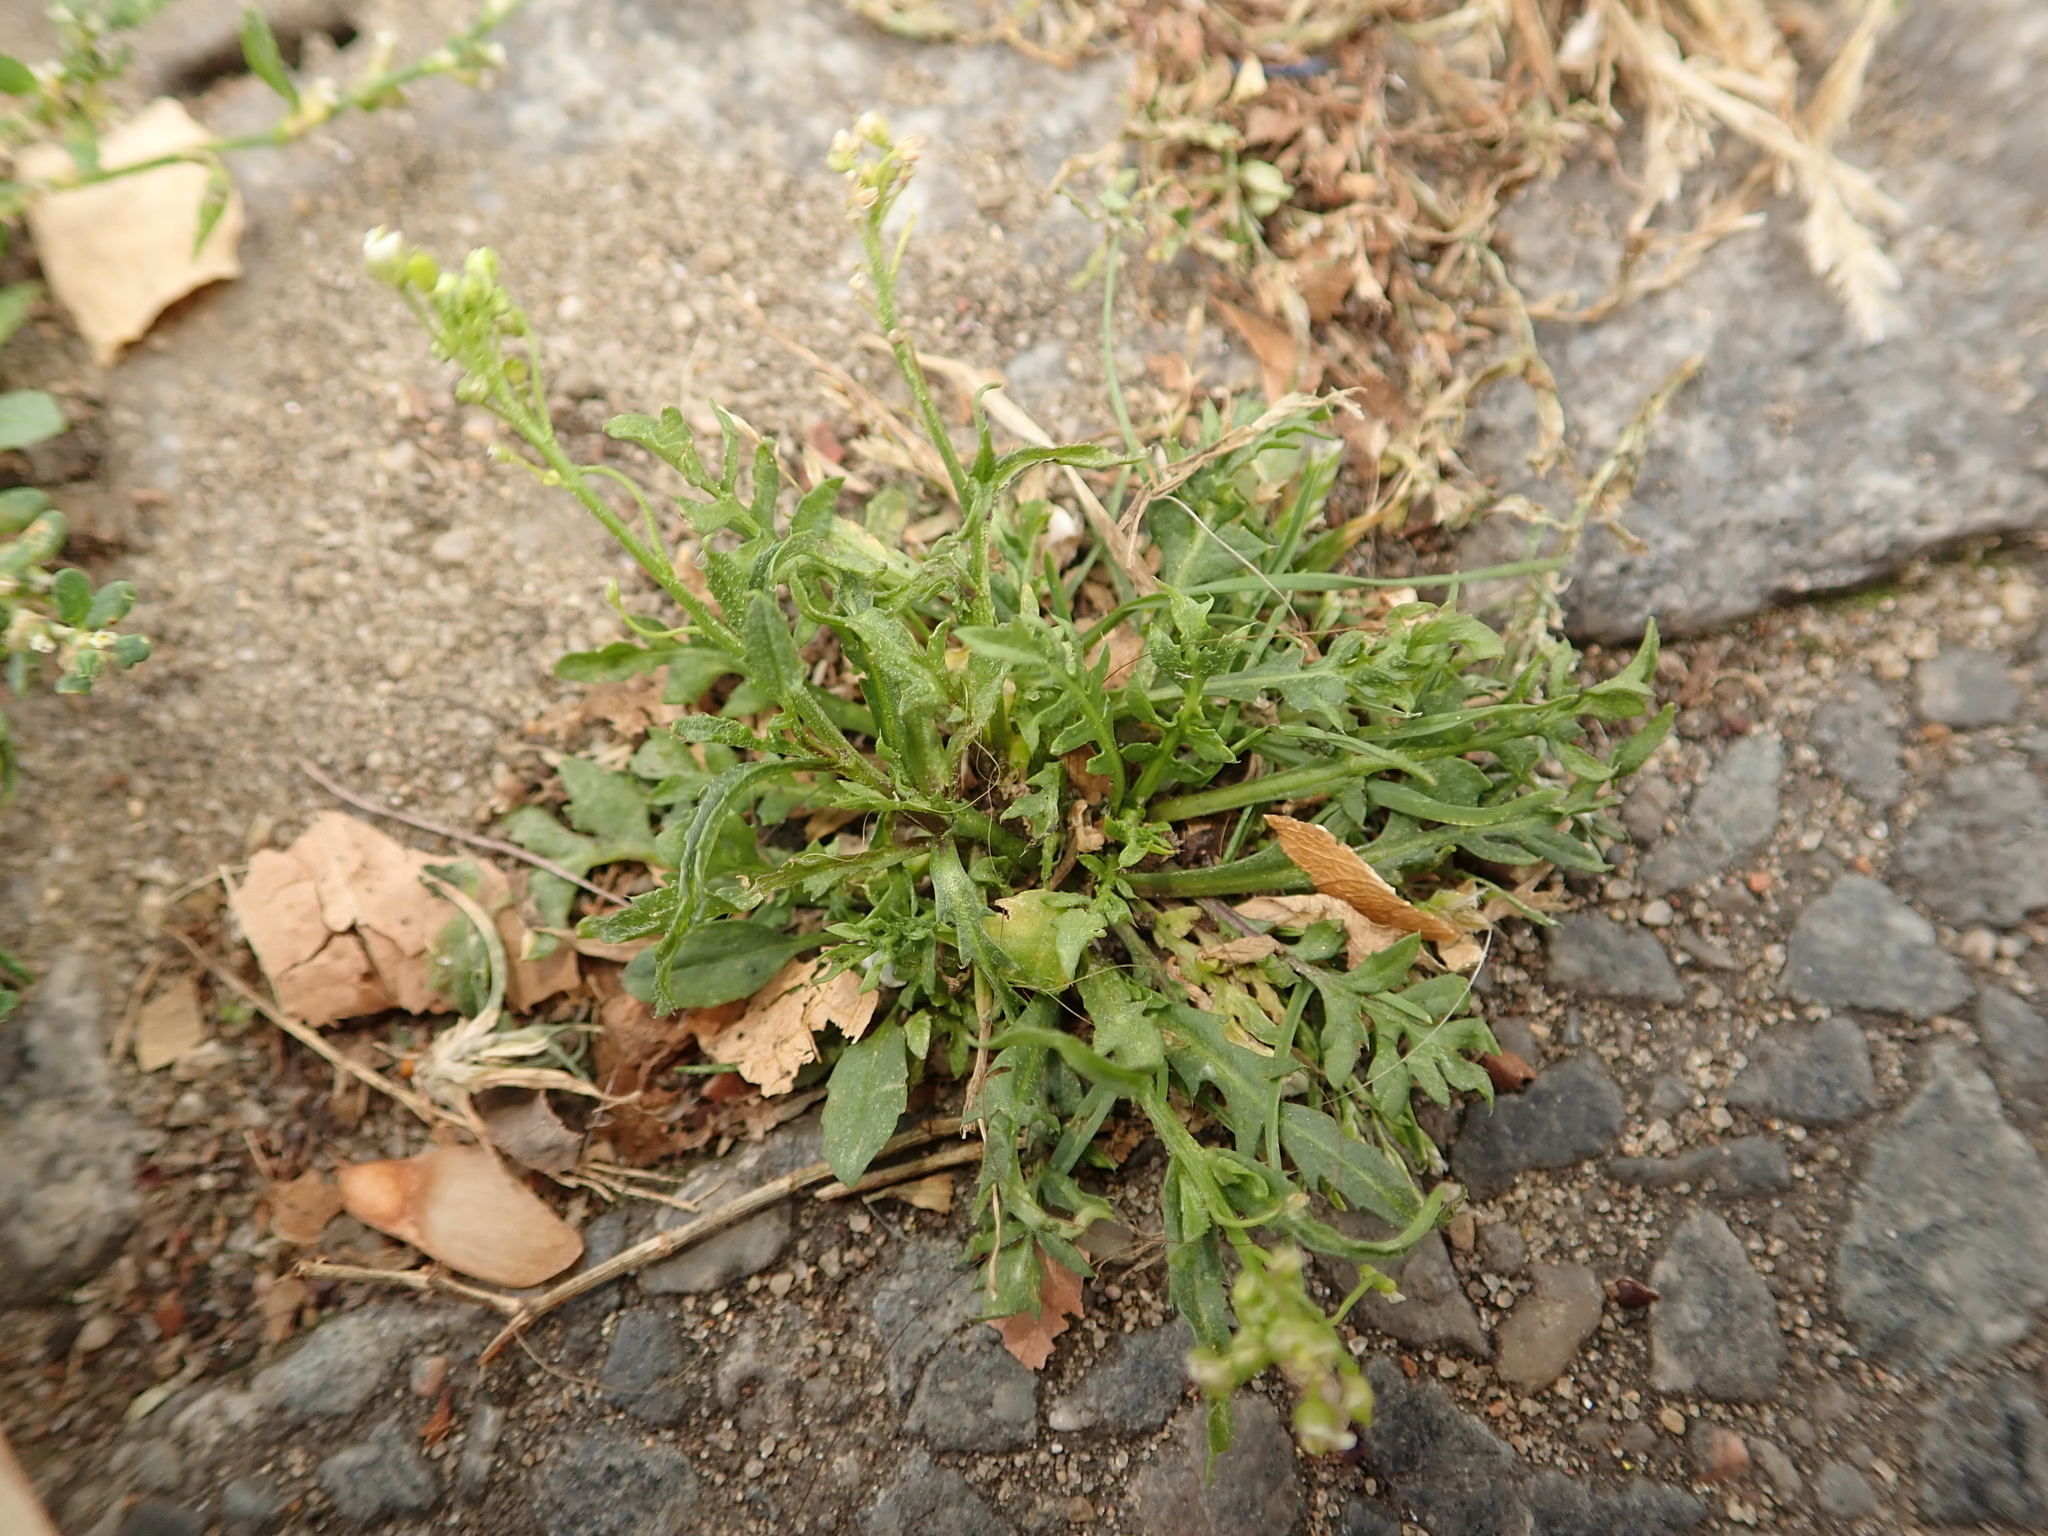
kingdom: Plantae
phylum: Tracheophyta
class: Magnoliopsida
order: Brassicales
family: Brassicaceae
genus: Capsella
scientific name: Capsella bursa-pastoris
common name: Shepherd's purse
